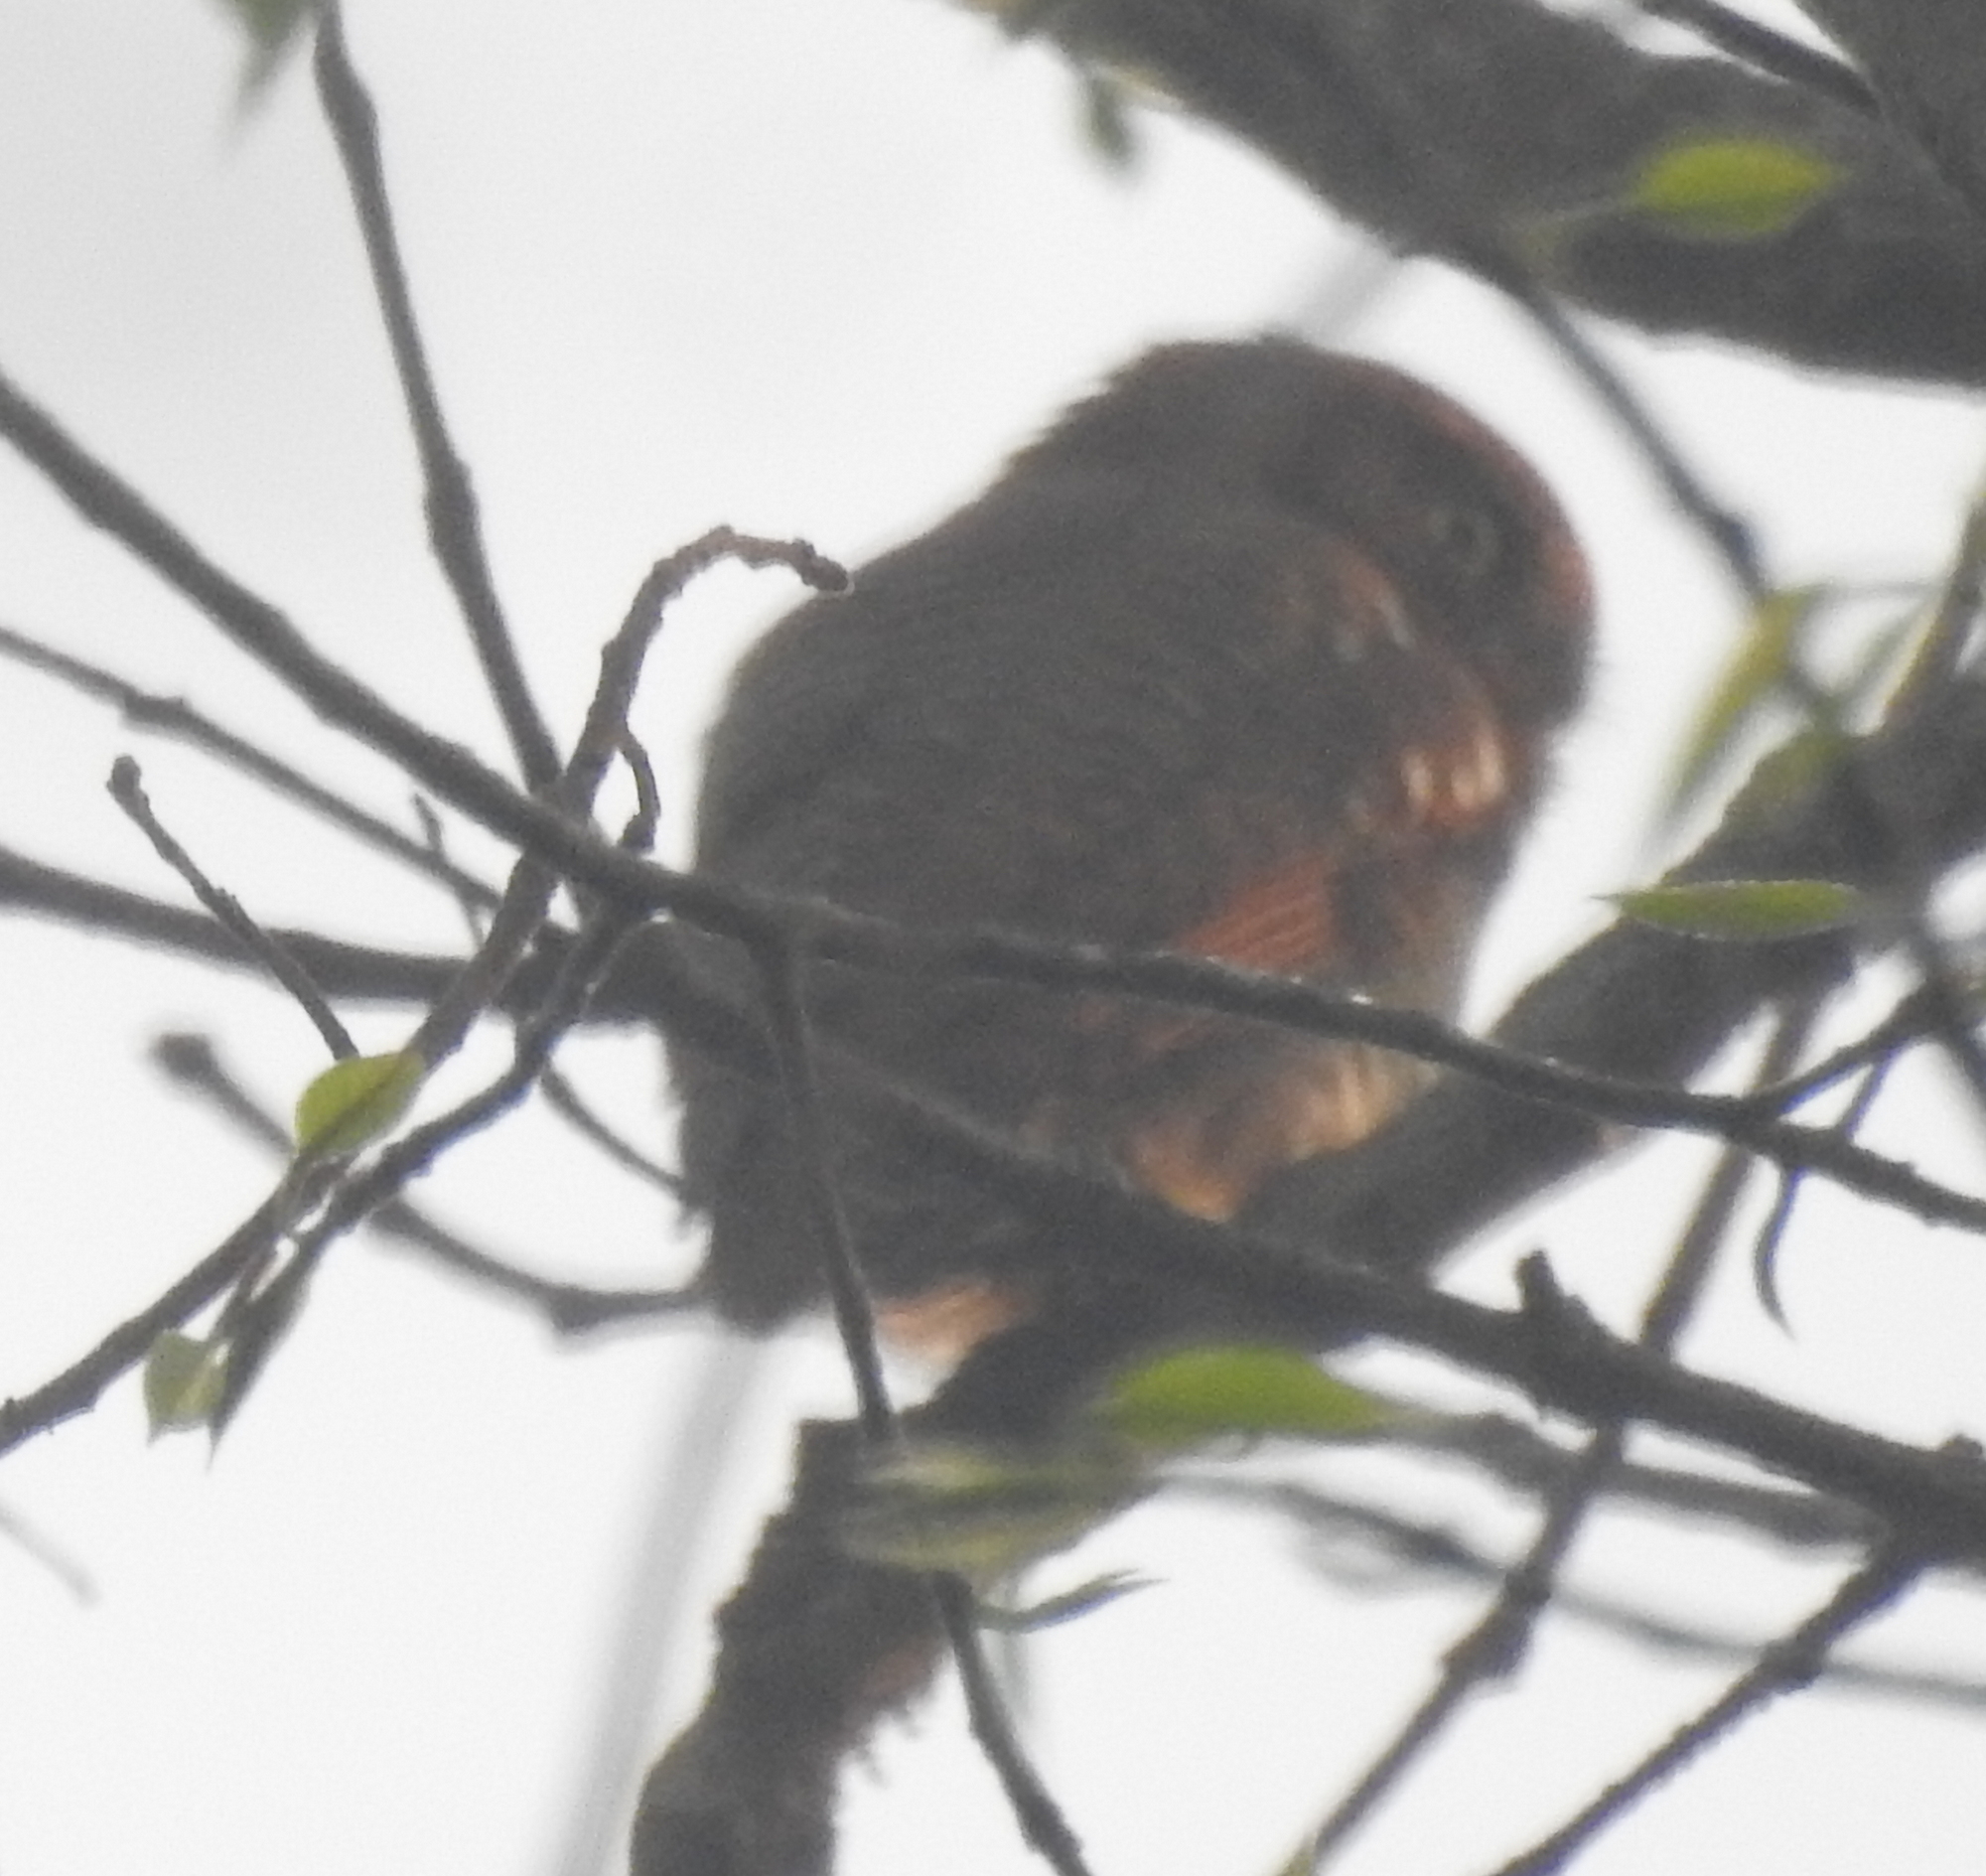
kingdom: Animalia
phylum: Chordata
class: Aves
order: Strigiformes
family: Strigidae
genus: Glaucidium
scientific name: Glaucidium radiatum
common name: Jungle owlet
